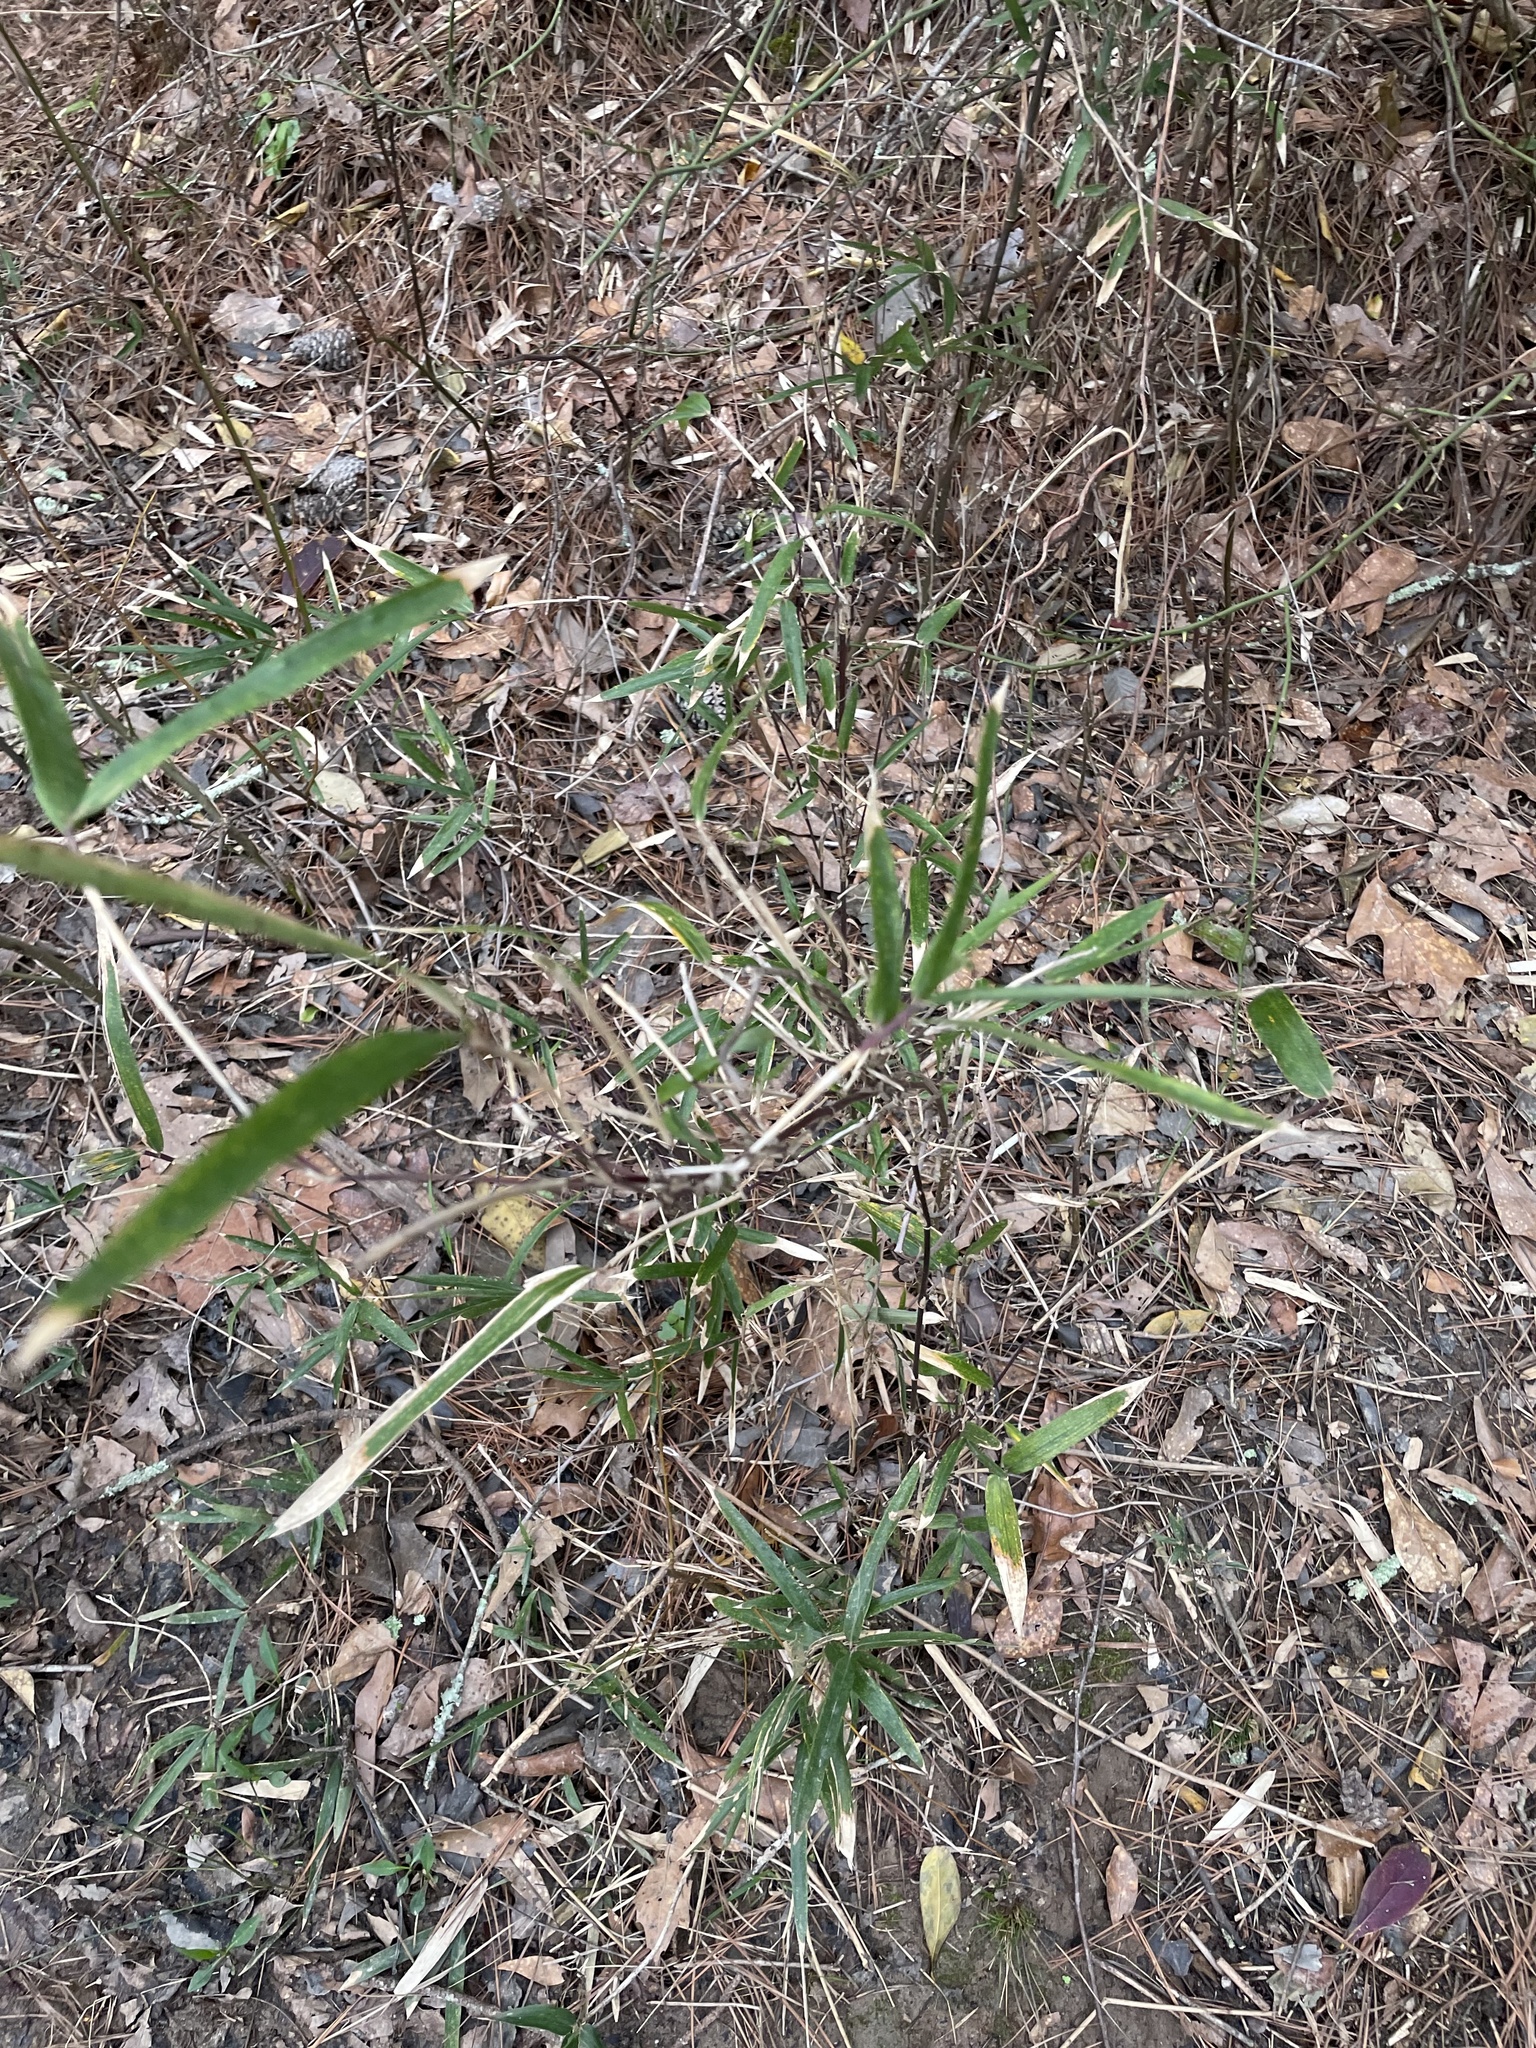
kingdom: Plantae
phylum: Tracheophyta
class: Liliopsida
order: Poales
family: Poaceae
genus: Arundinaria
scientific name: Arundinaria gigantea
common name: Giant cane
